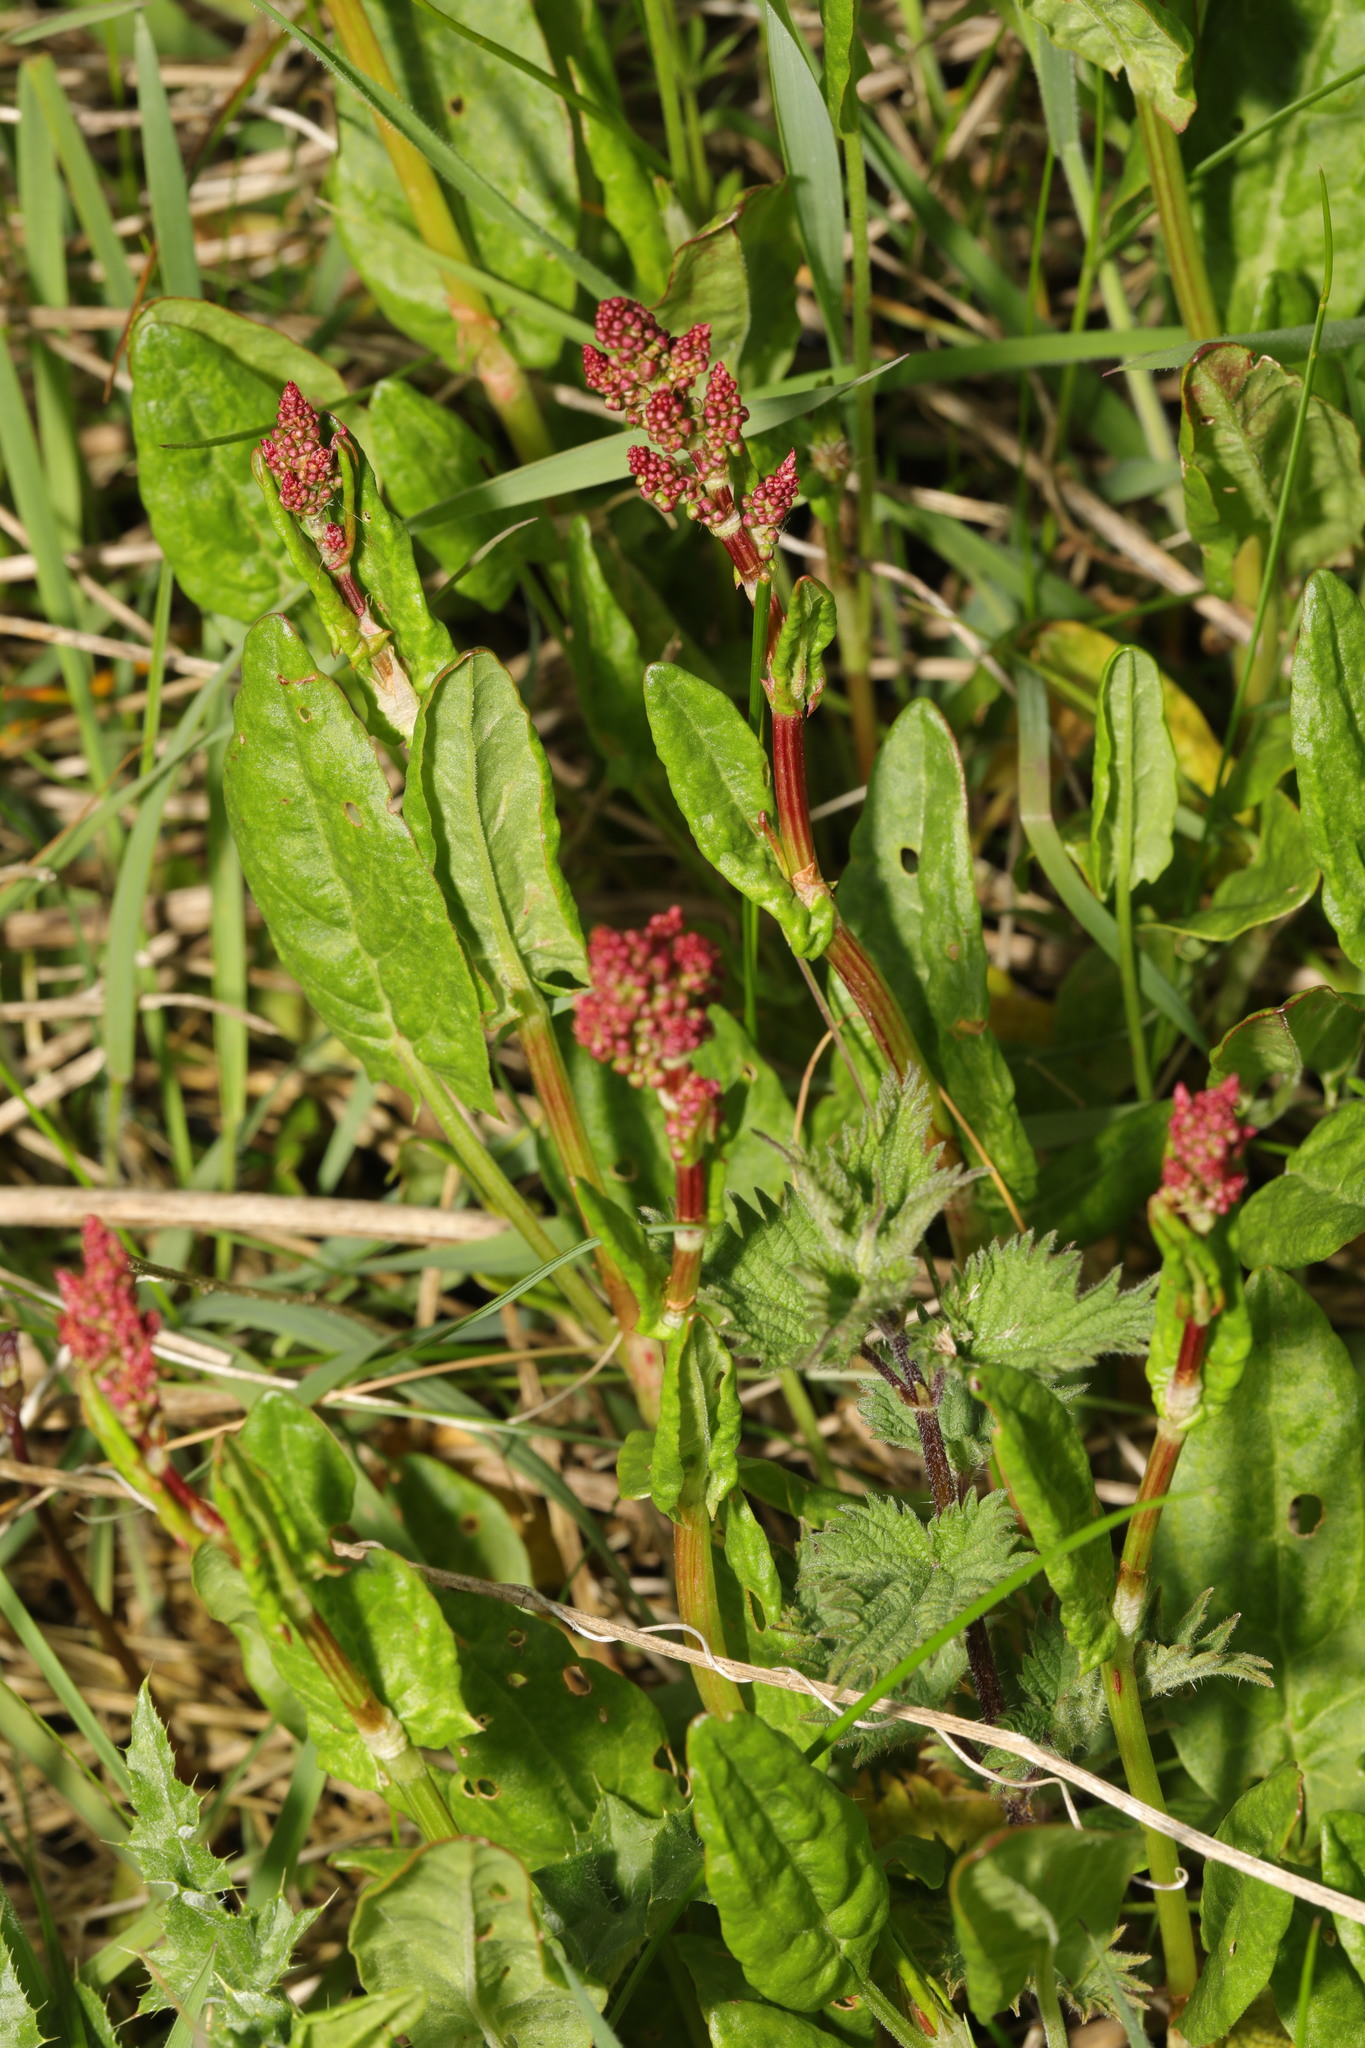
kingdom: Plantae
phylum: Tracheophyta
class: Magnoliopsida
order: Caryophyllales
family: Polygonaceae
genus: Rumex
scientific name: Rumex acetosa
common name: Garden sorrel
